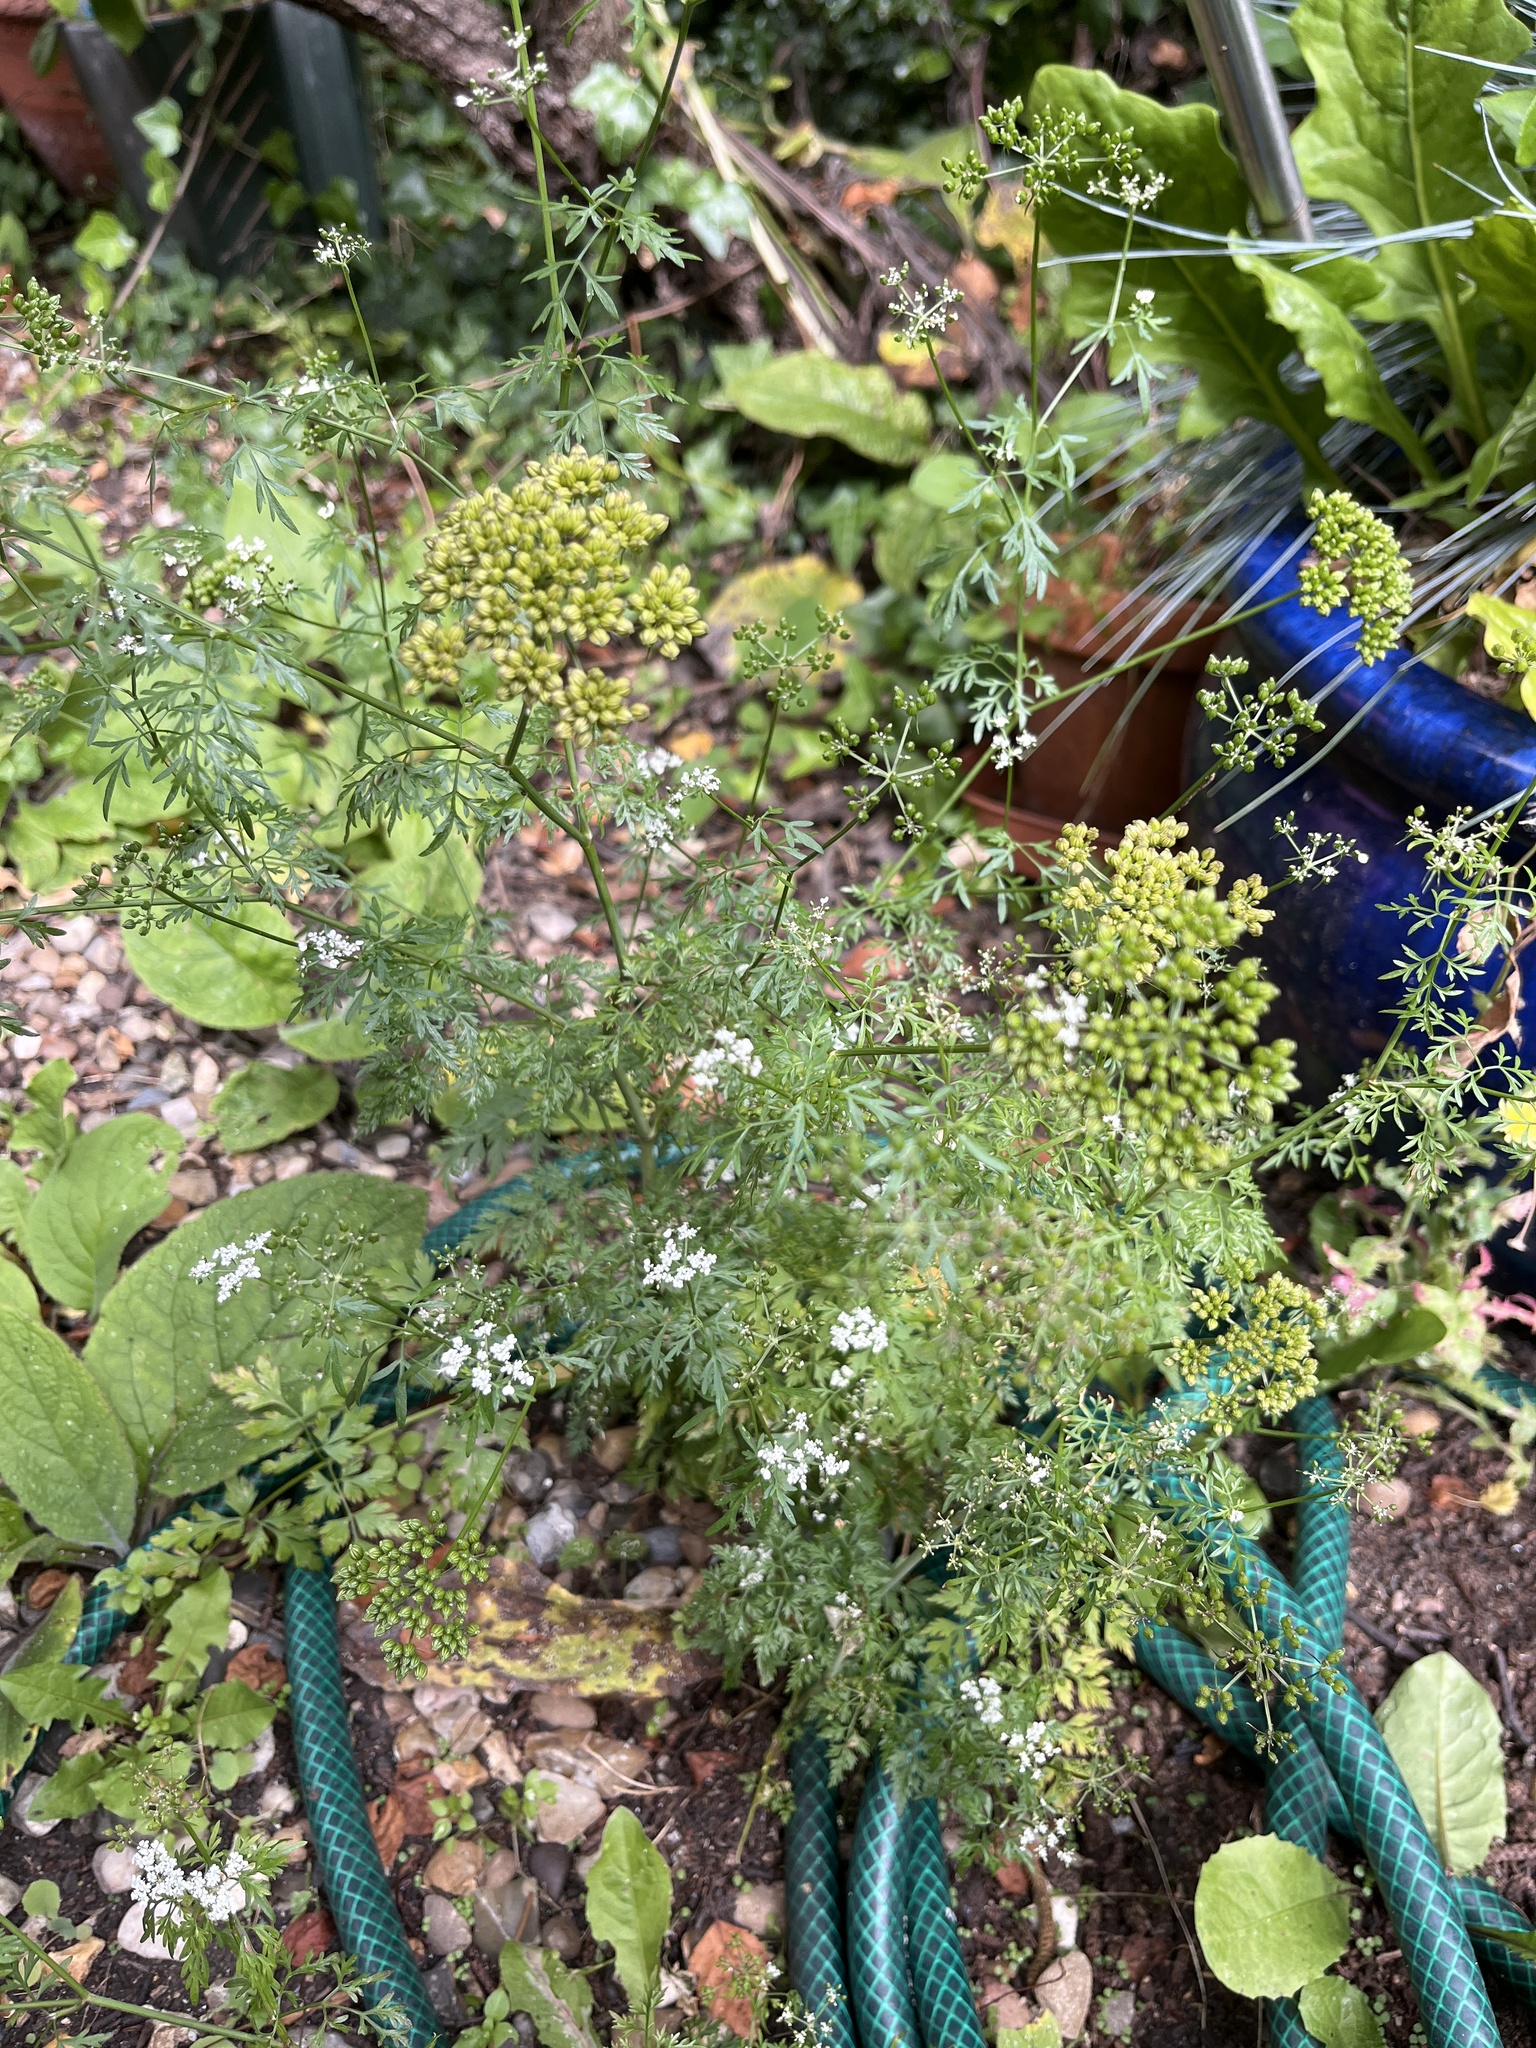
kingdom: Plantae
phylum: Tracheophyta
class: Magnoliopsida
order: Apiales
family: Apiaceae
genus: Aethusa
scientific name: Aethusa cynapium
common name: Fool's parsley
